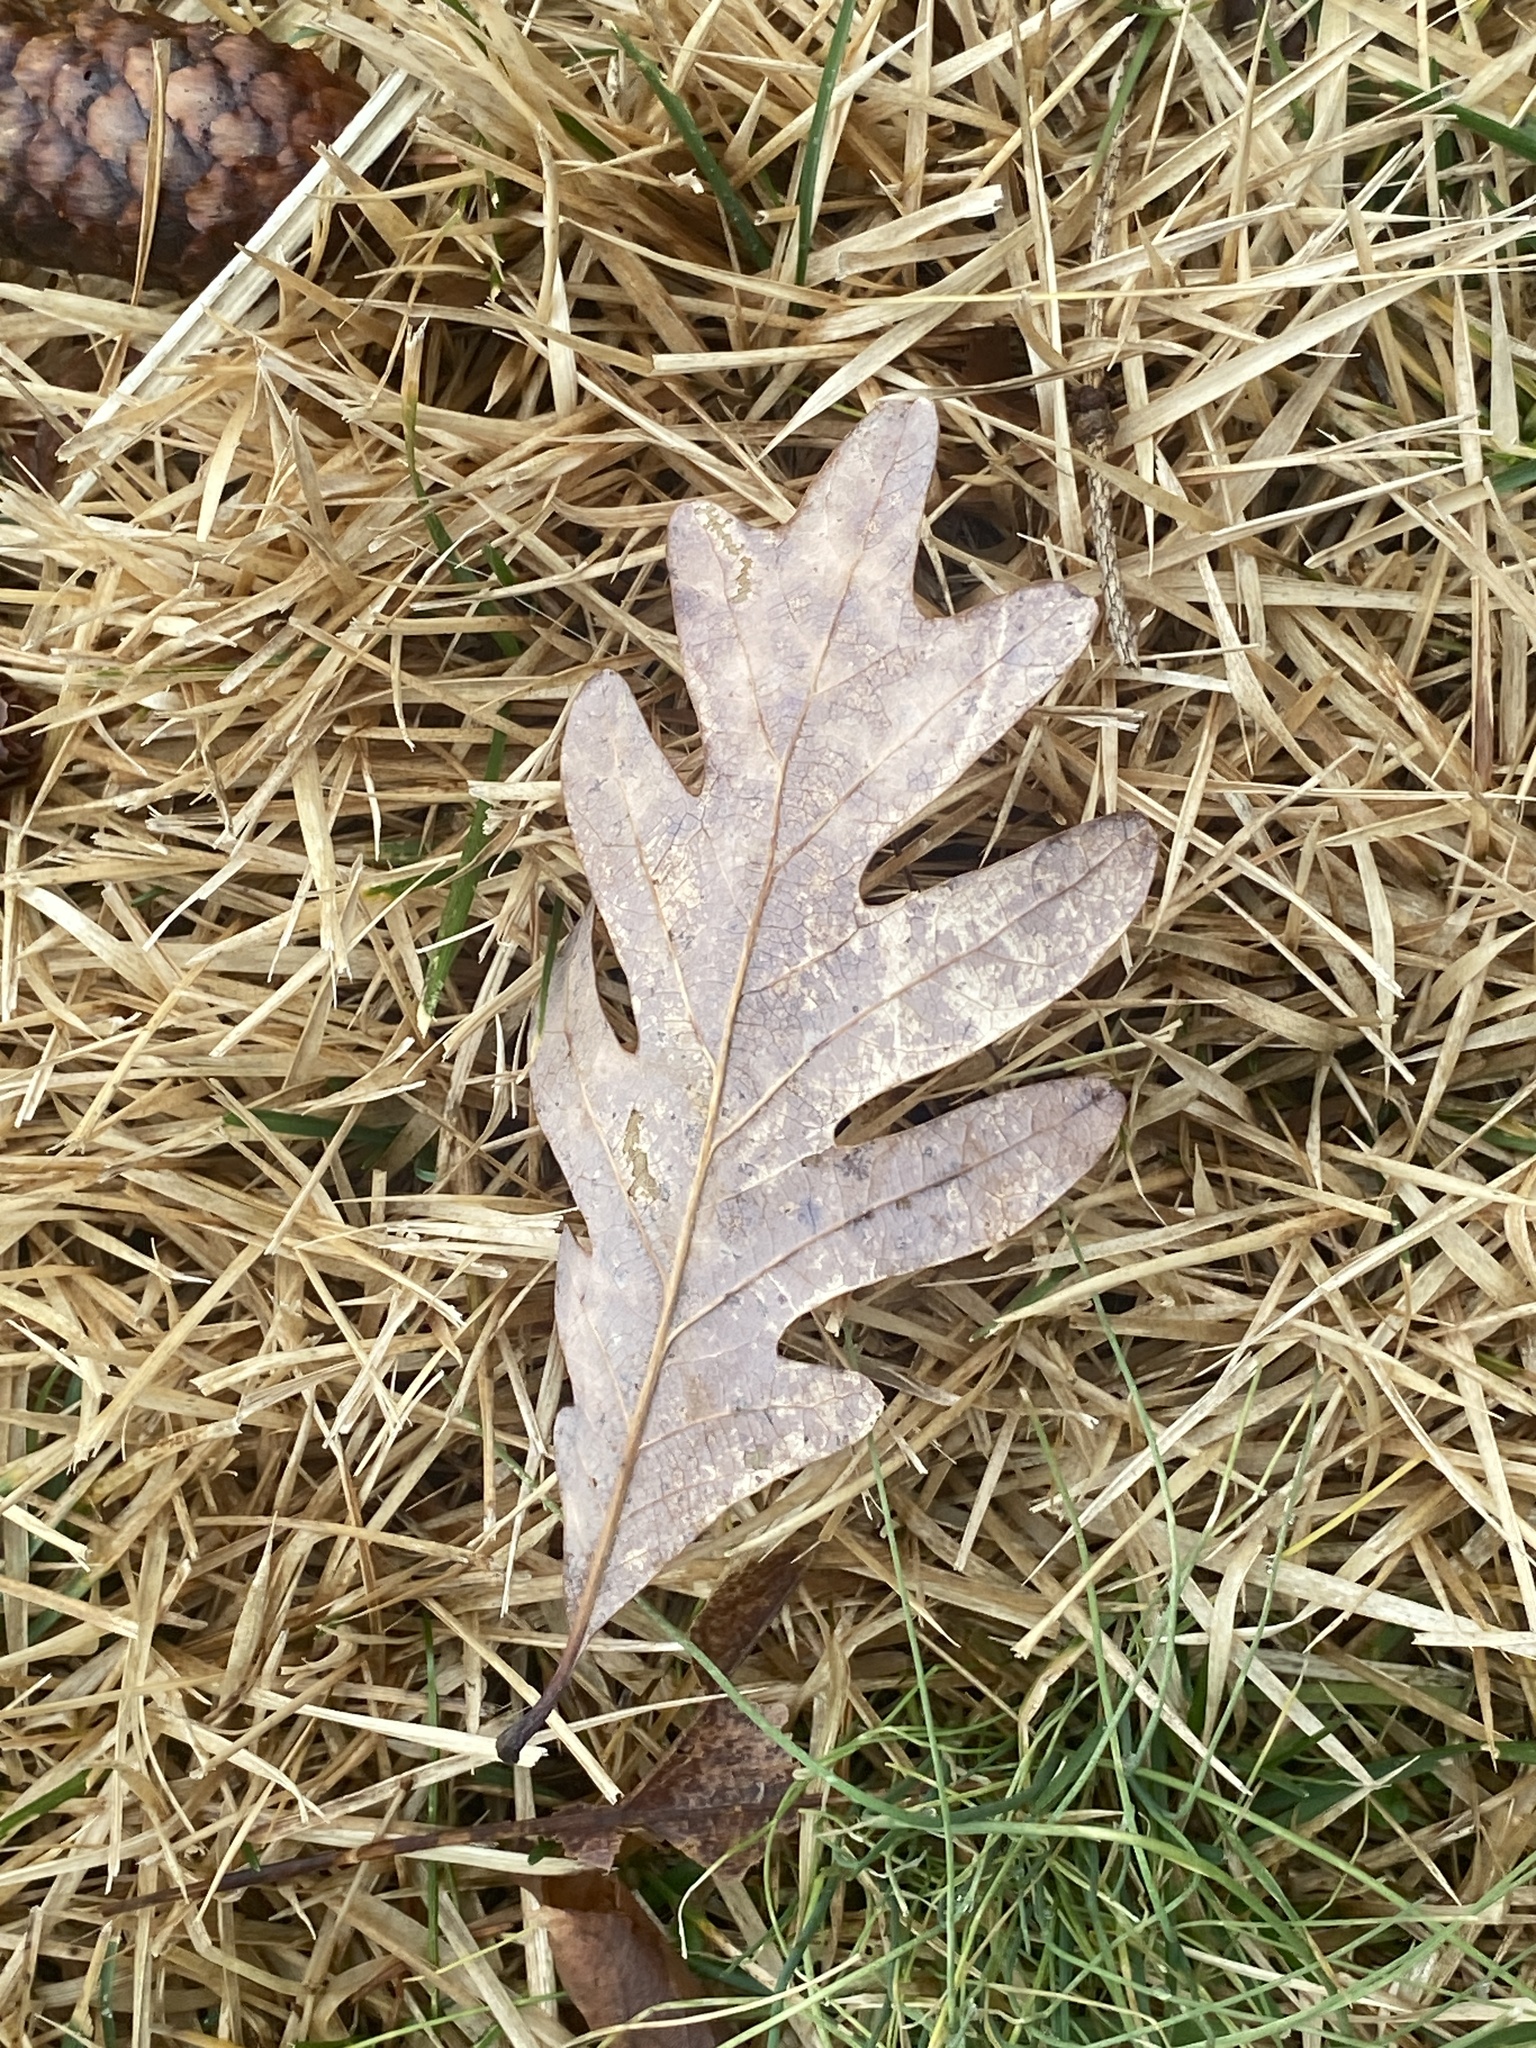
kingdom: Plantae
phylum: Tracheophyta
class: Magnoliopsida
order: Fagales
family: Fagaceae
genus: Quercus
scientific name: Quercus alba
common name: White oak
